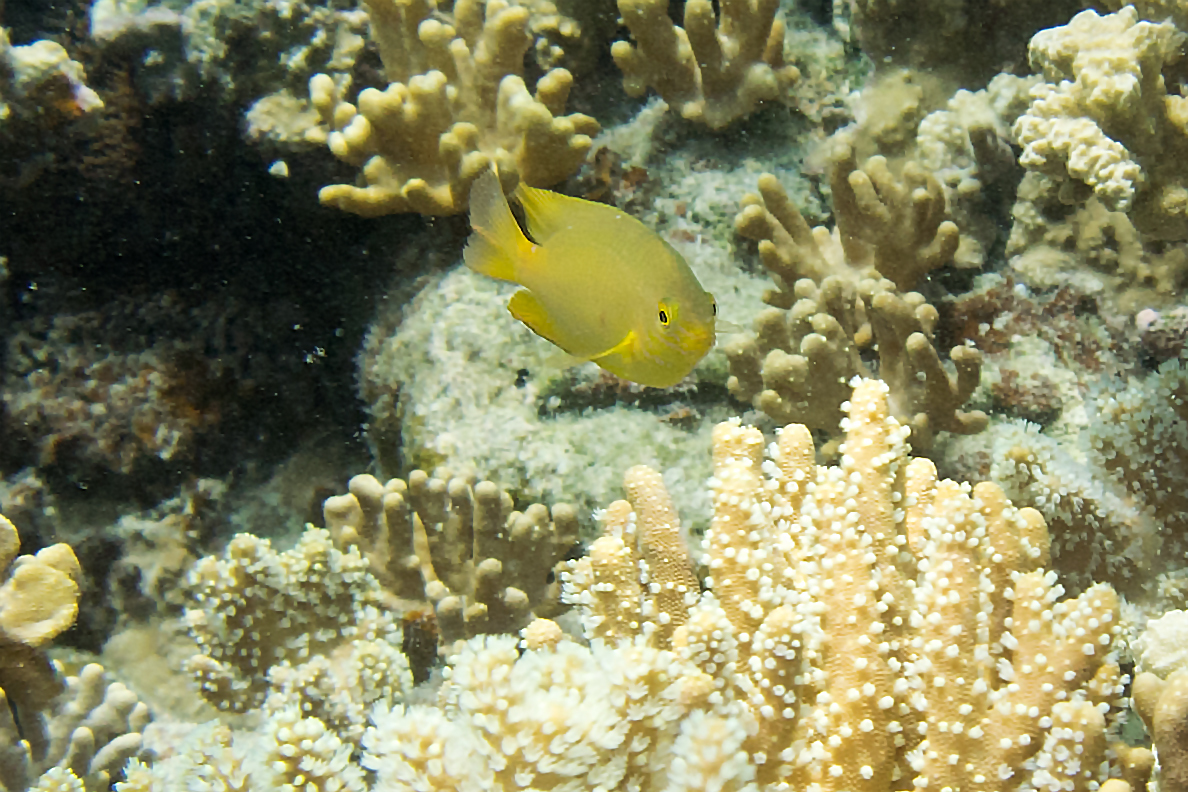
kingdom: Animalia
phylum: Chordata
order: Perciformes
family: Pomacentridae
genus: Pomacentrus
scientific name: Pomacentrus moluccensis
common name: Lemon damsel
